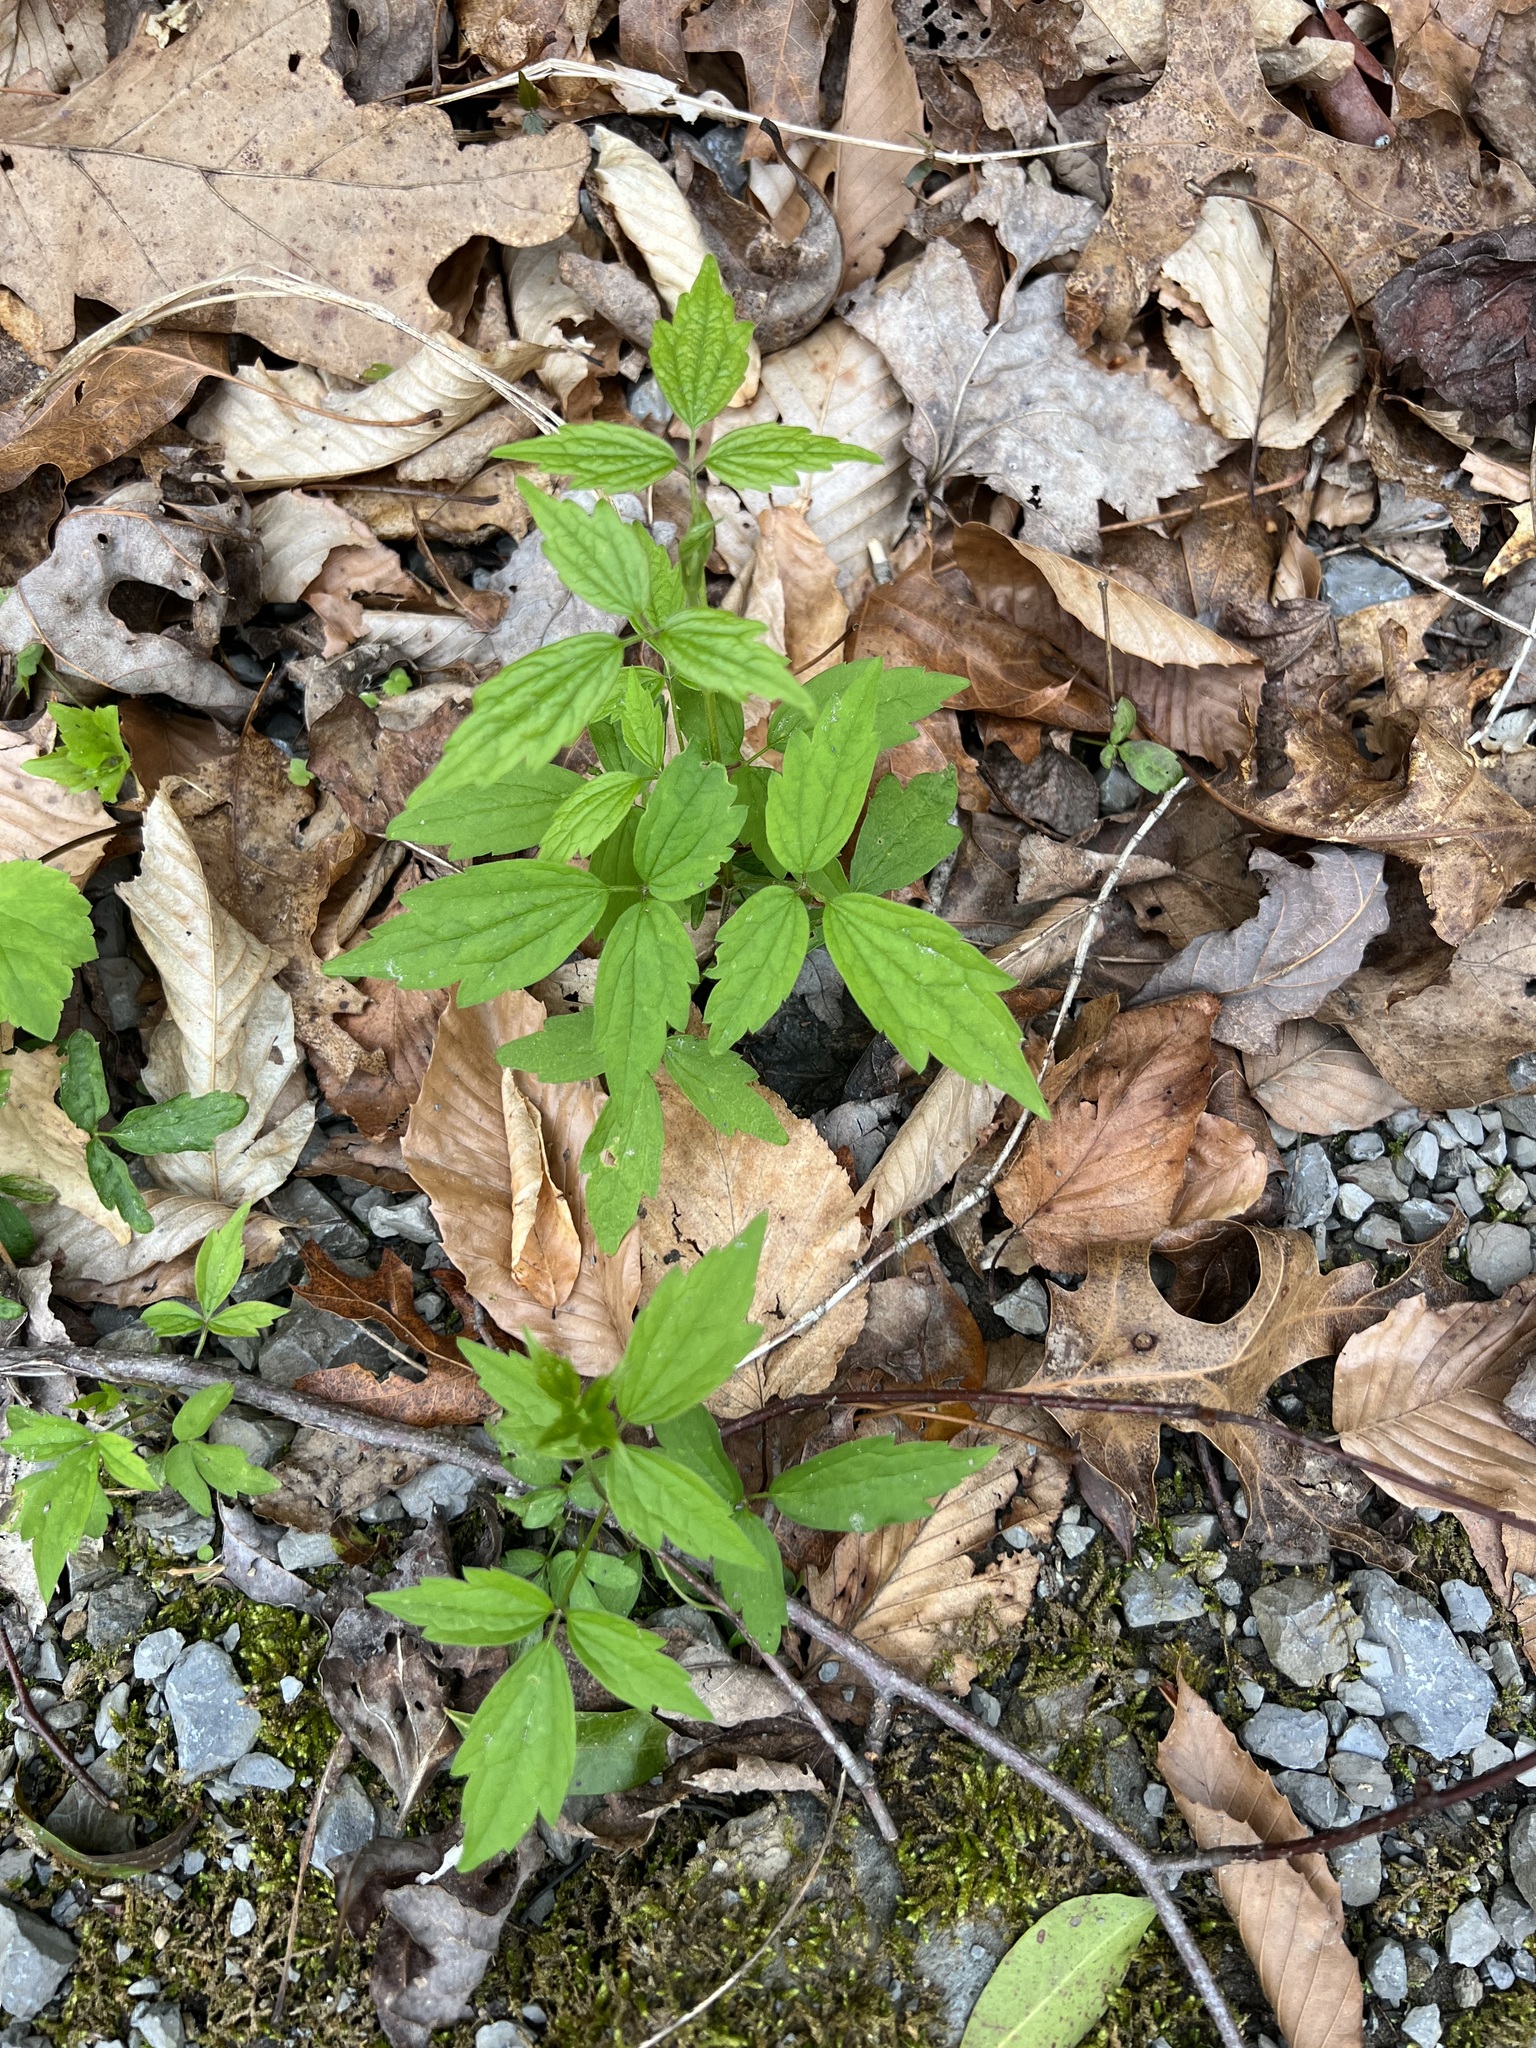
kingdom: Plantae
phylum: Tracheophyta
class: Magnoliopsida
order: Ranunculales
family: Ranunculaceae
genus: Clematis
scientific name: Clematis virginiana
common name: Virgin's-bower
